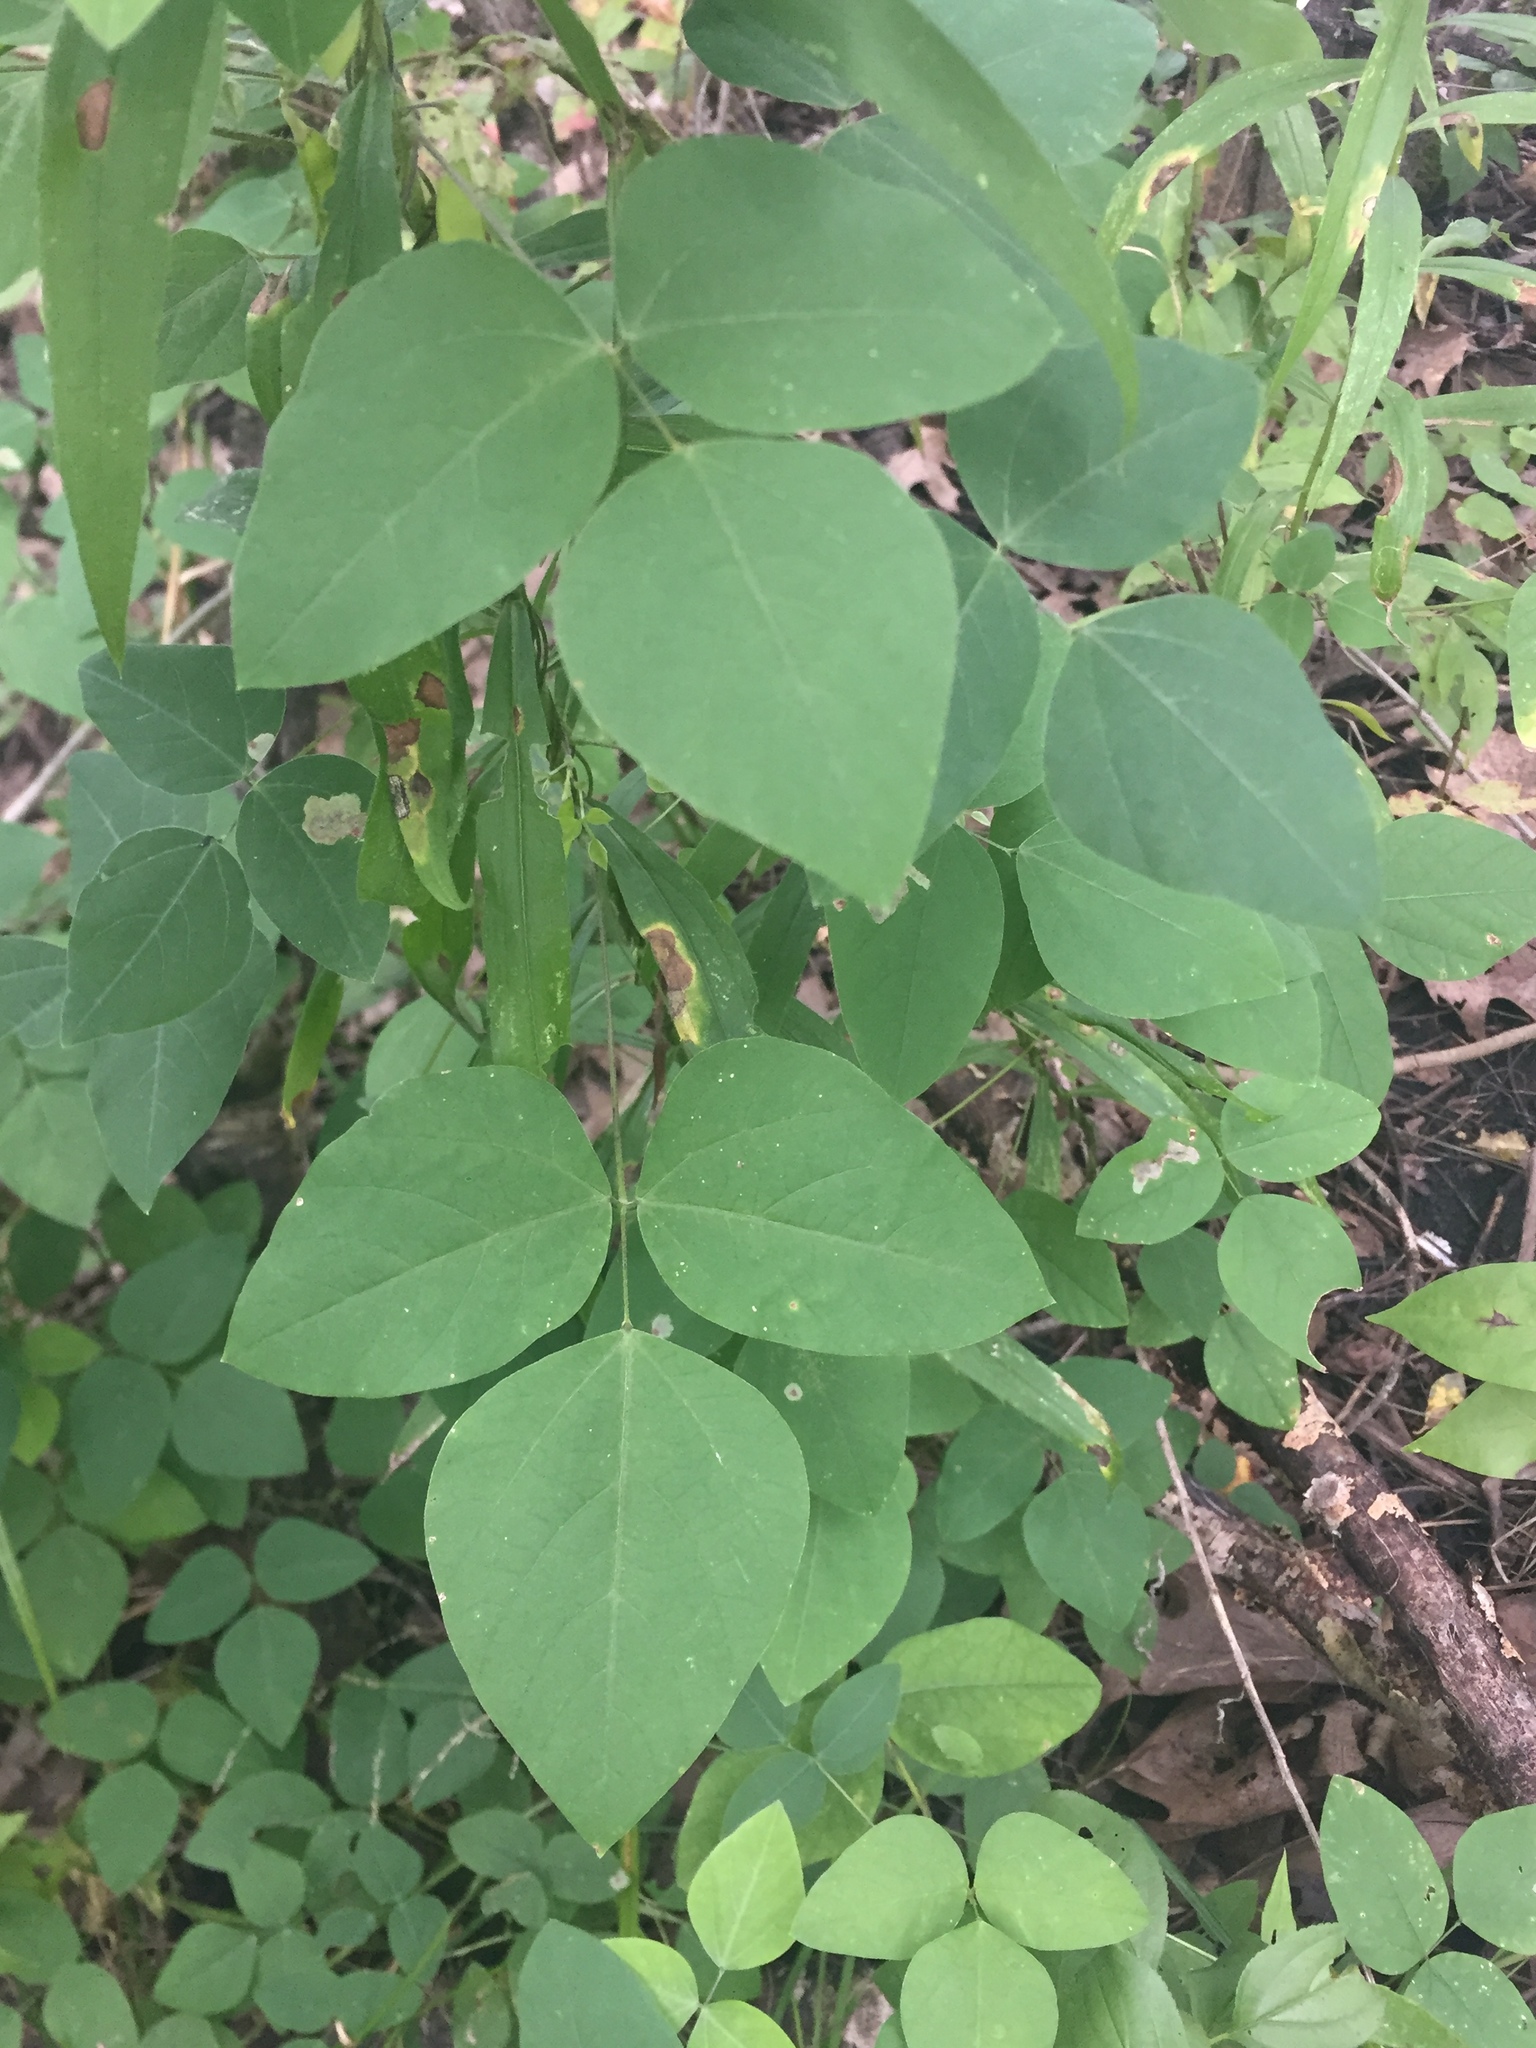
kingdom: Plantae
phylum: Tracheophyta
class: Magnoliopsida
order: Fabales
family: Fabaceae
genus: Amphicarpaea
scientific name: Amphicarpaea bracteata
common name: American hog peanut
